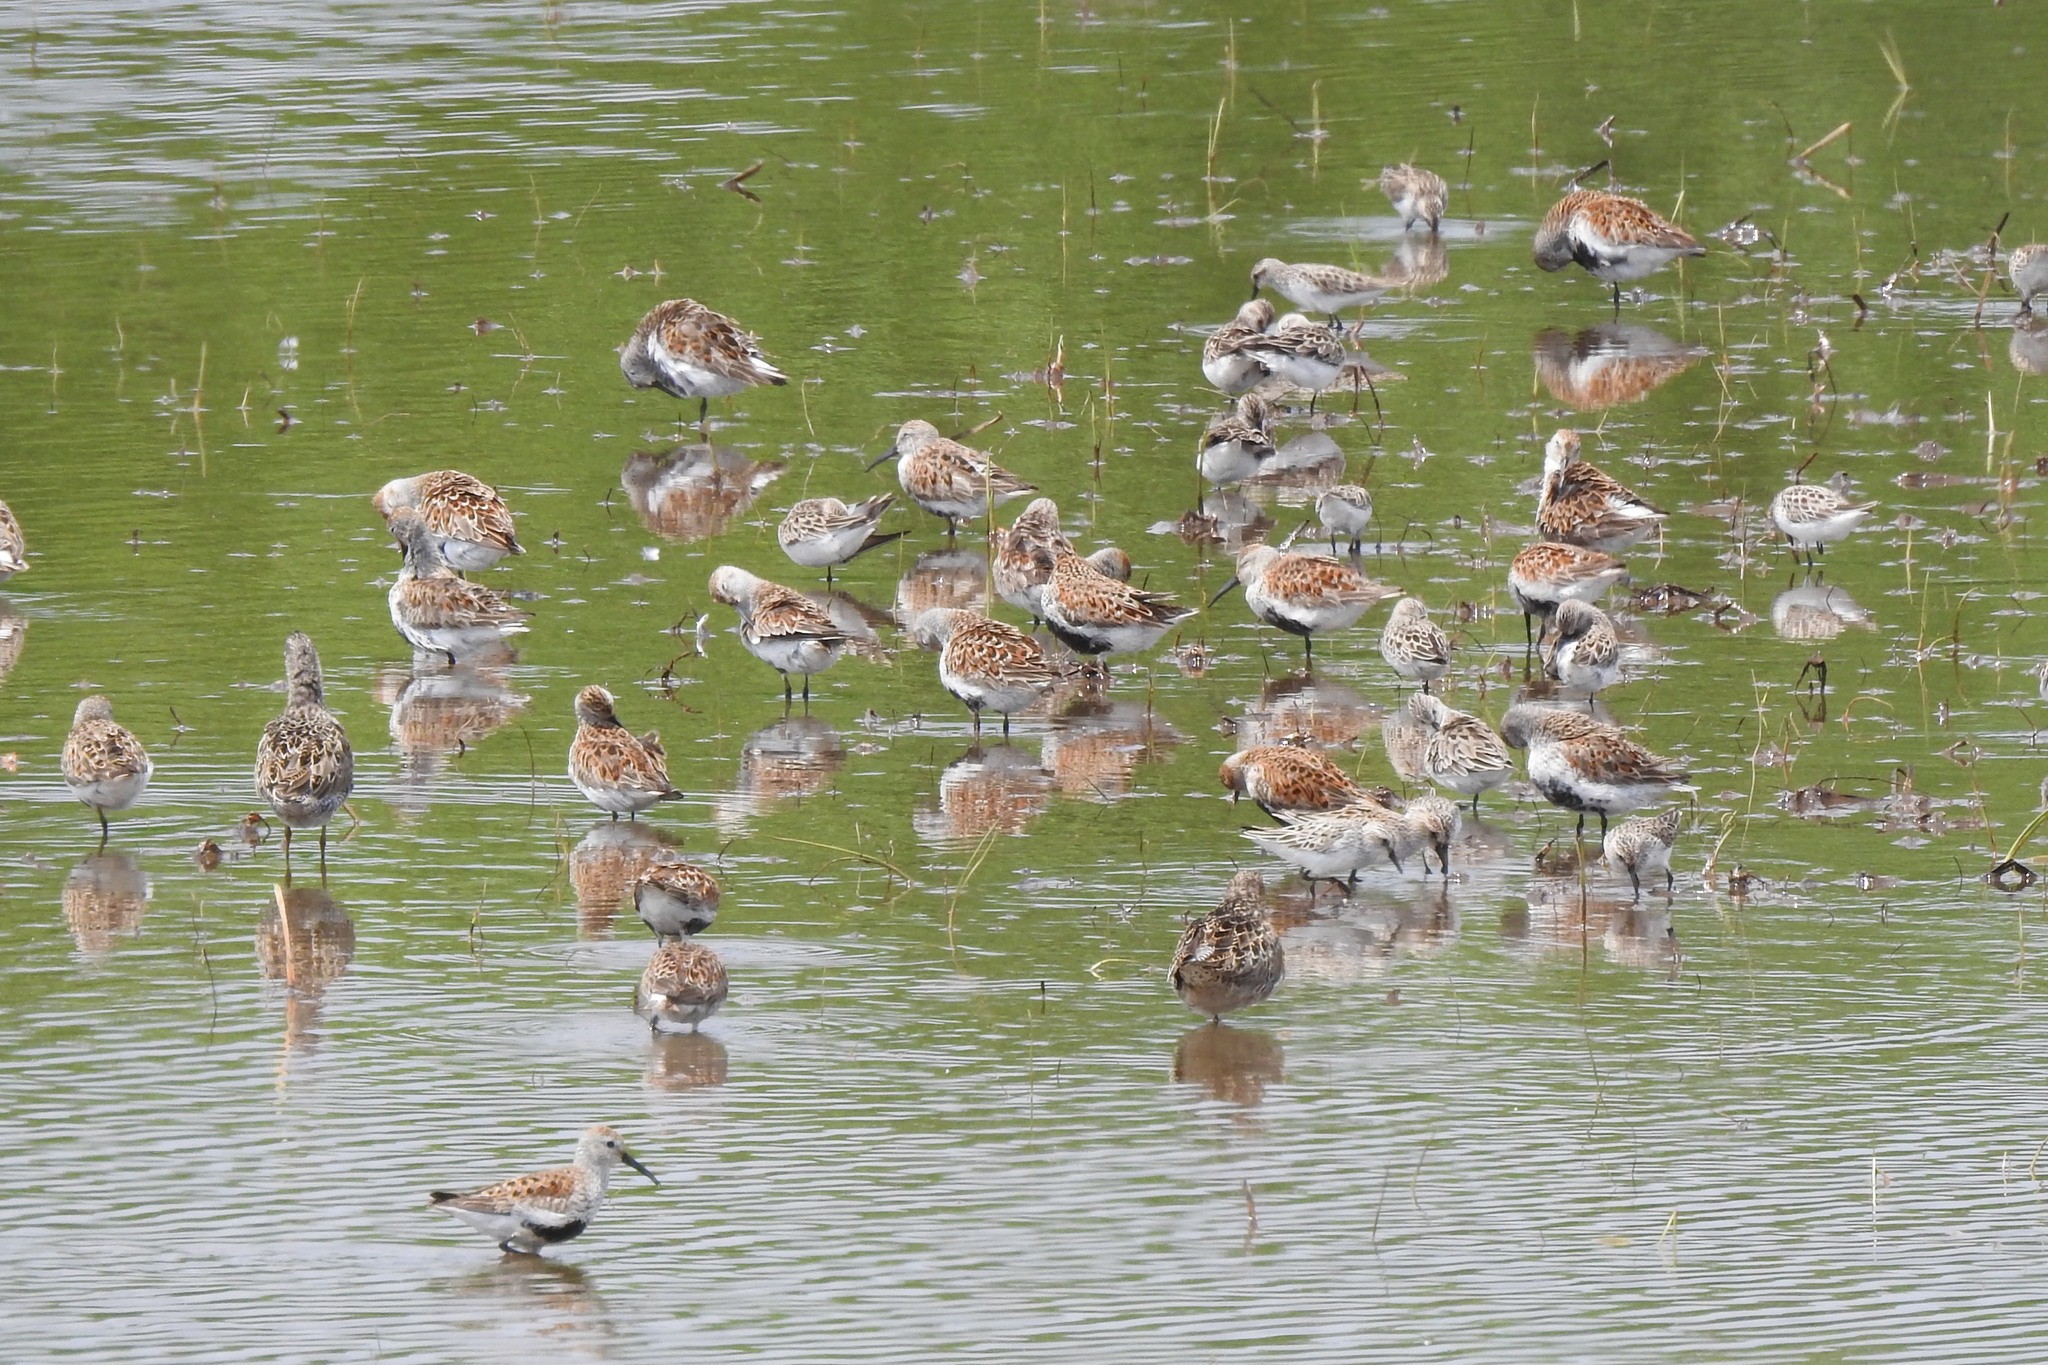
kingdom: Animalia
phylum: Chordata
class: Aves
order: Charadriiformes
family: Scolopacidae
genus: Calidris
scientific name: Calidris alpina
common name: Dunlin
